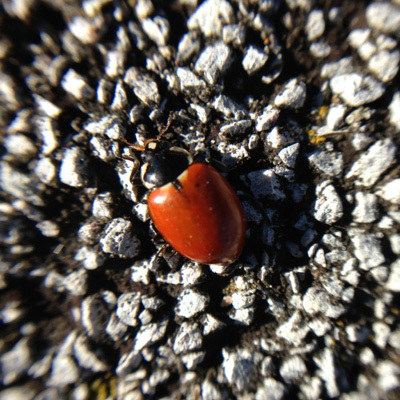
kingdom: Animalia
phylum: Arthropoda
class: Insecta
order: Coleoptera
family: Coccinellidae
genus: Hippodamia
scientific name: Hippodamia quinquesignata
